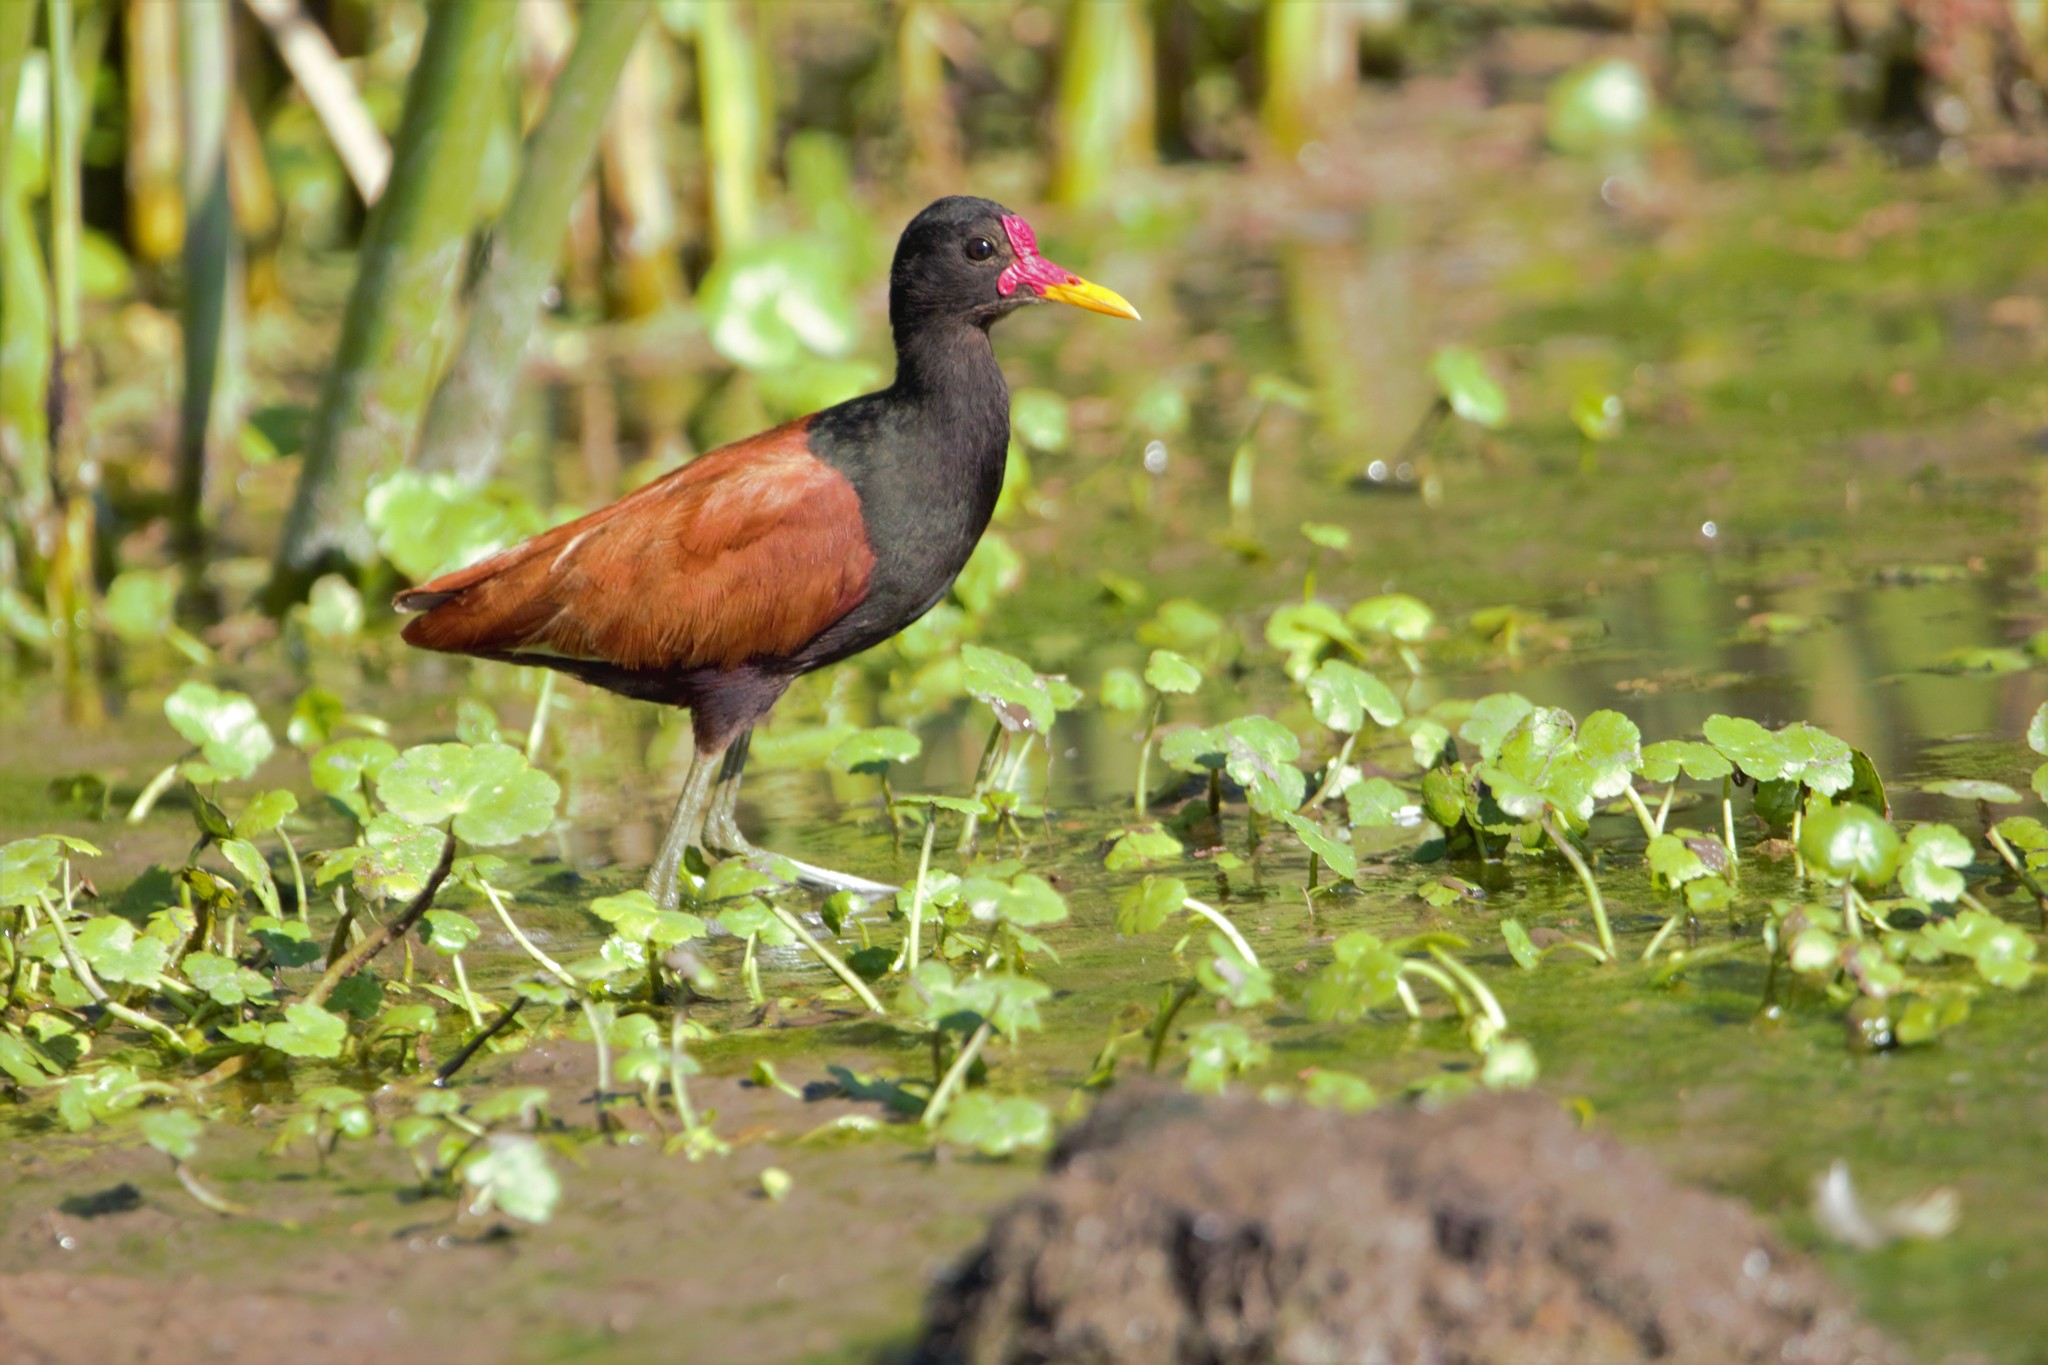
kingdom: Animalia
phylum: Chordata
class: Aves
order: Charadriiformes
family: Jacanidae
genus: Jacana
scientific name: Jacana jacana
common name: Wattled jacana
